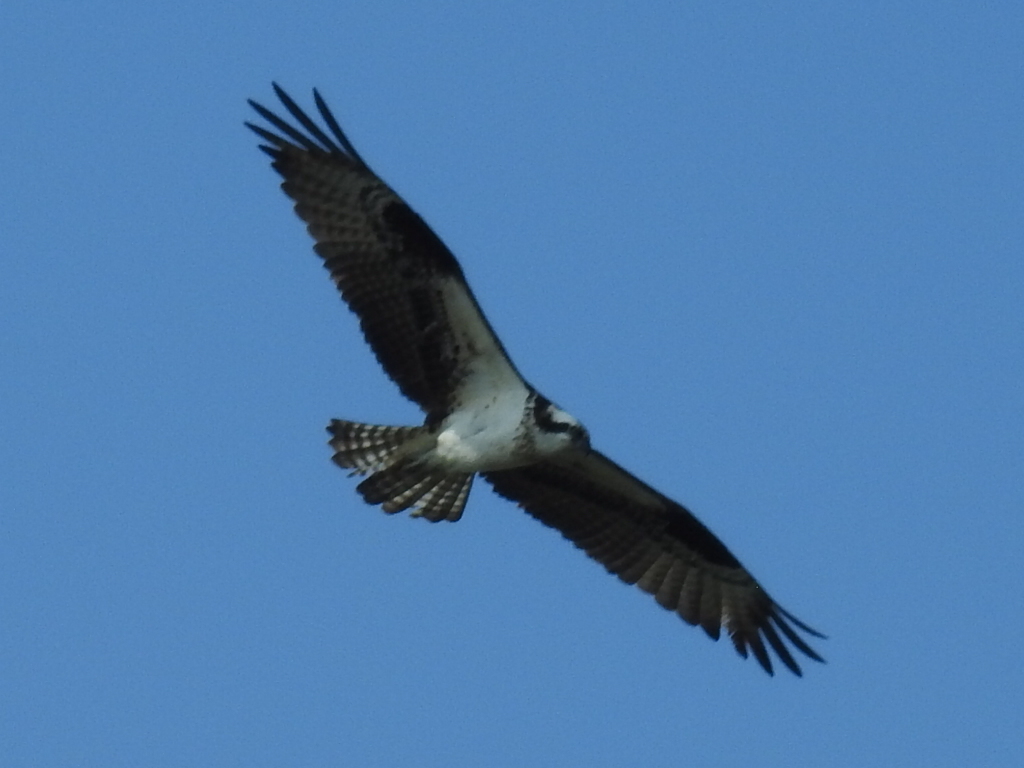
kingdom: Animalia
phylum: Chordata
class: Aves
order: Accipitriformes
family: Pandionidae
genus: Pandion
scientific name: Pandion haliaetus
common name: Osprey
